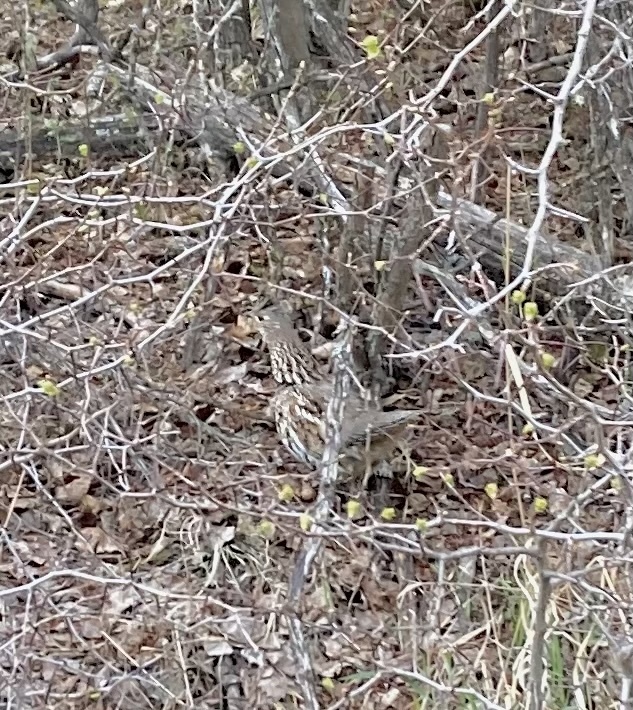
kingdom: Animalia
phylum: Chordata
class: Aves
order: Galliformes
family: Phasianidae
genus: Bonasa
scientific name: Bonasa umbellus
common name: Ruffed grouse
